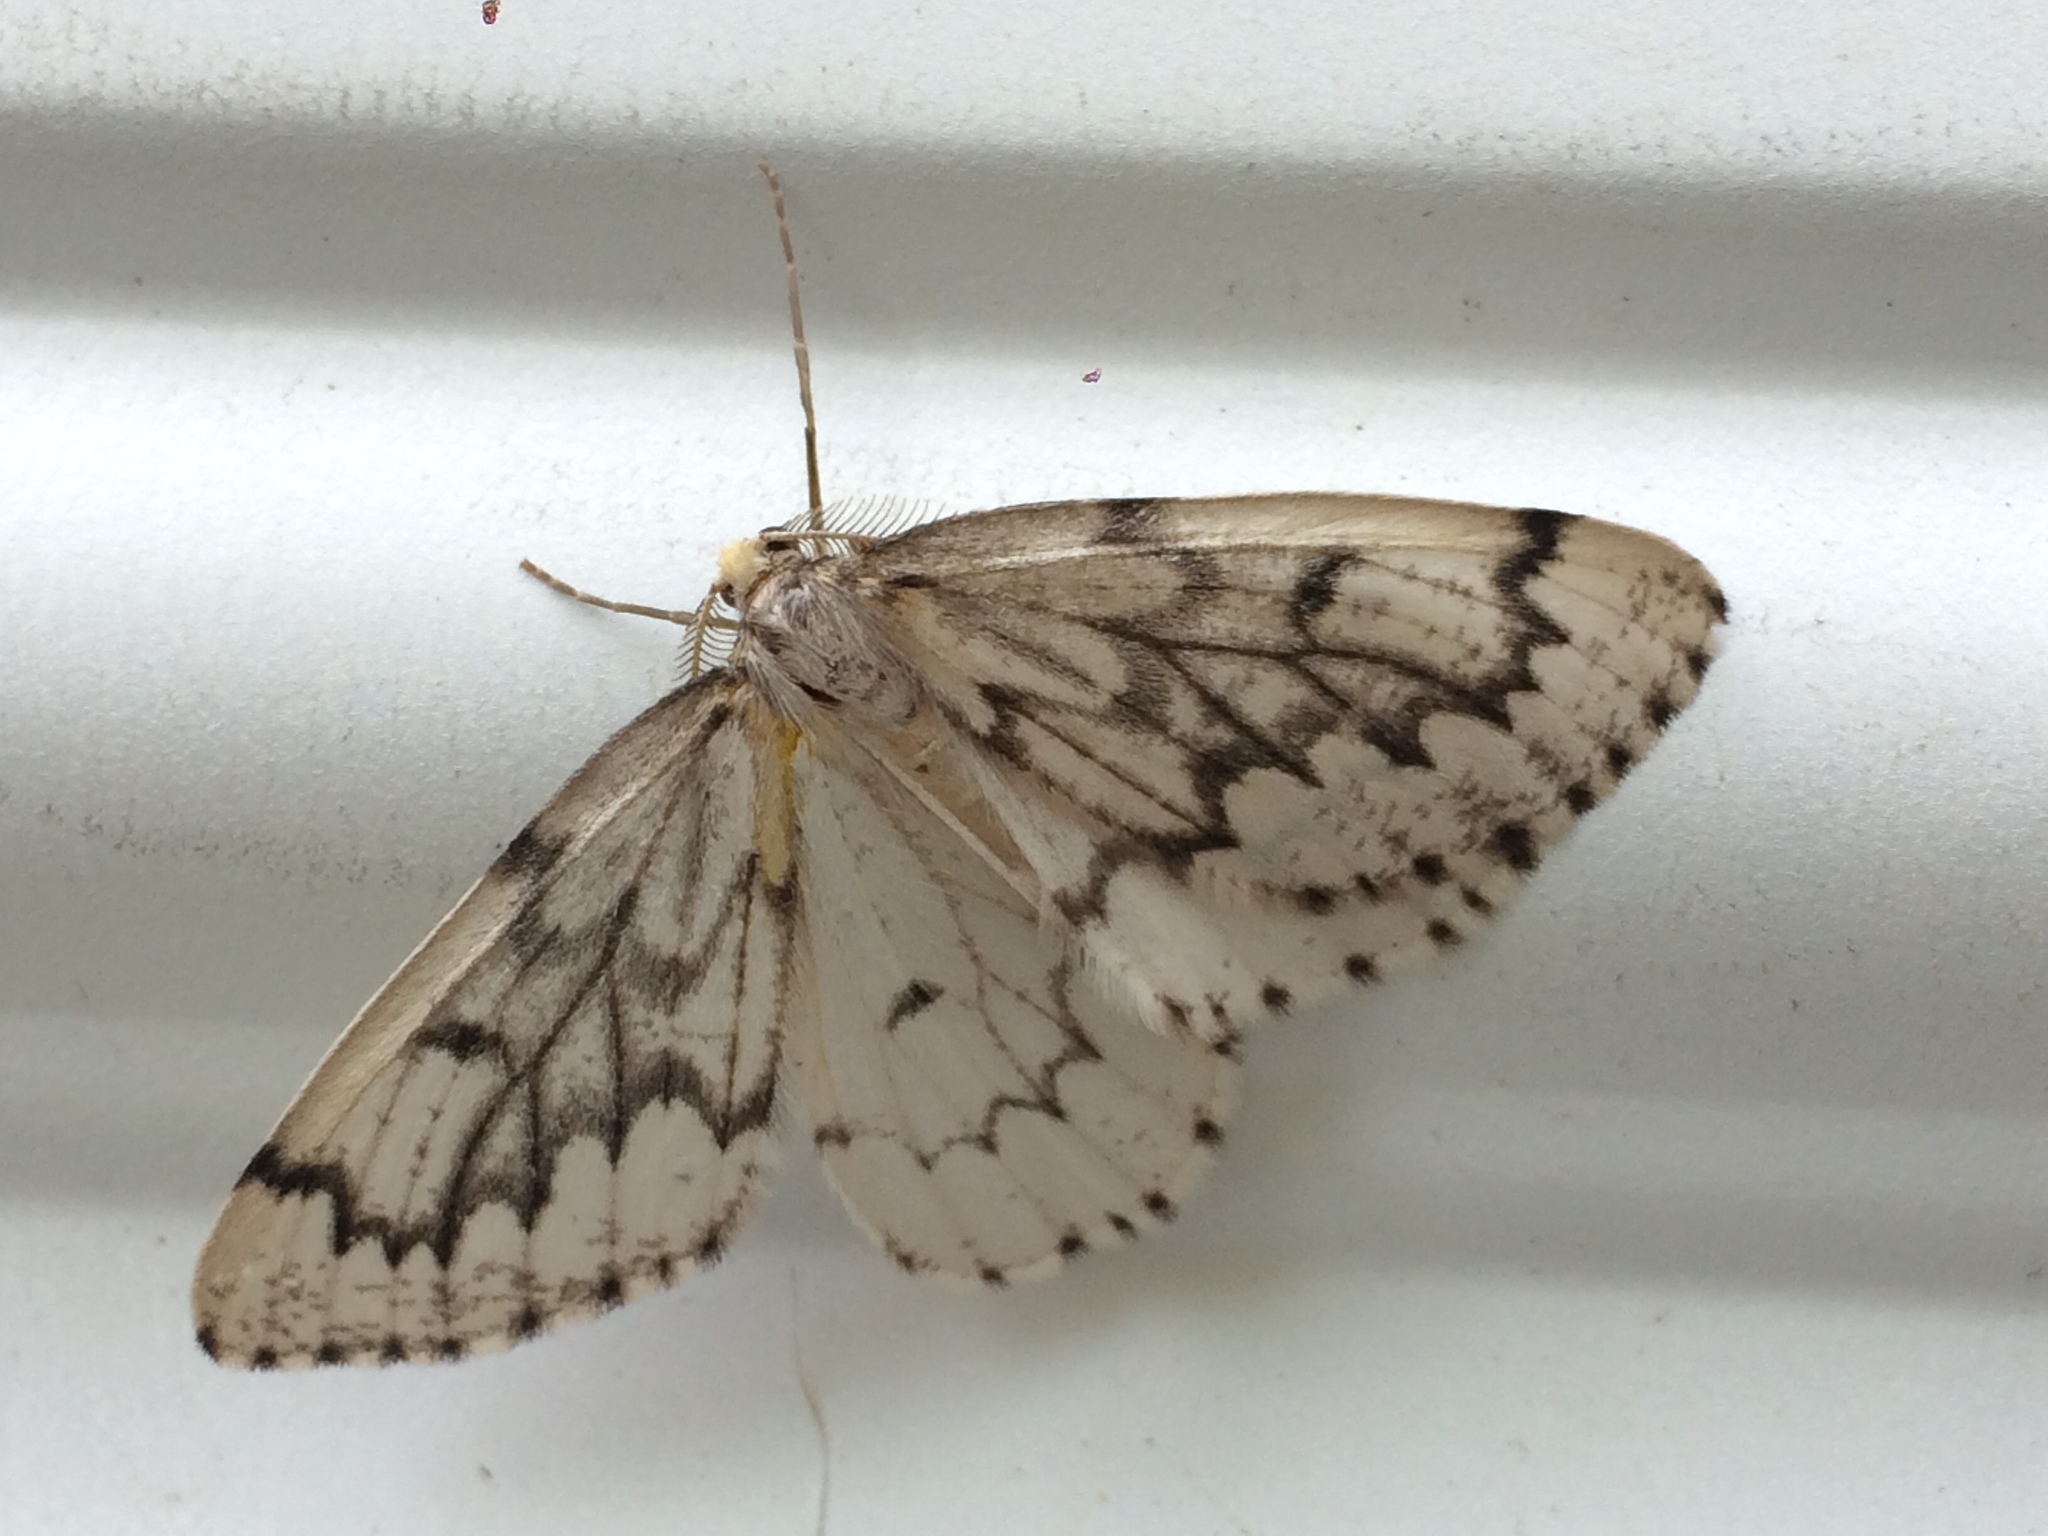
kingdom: Animalia
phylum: Arthropoda
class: Insecta
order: Lepidoptera
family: Geometridae
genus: Nepytia
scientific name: Nepytia phantasmaria
